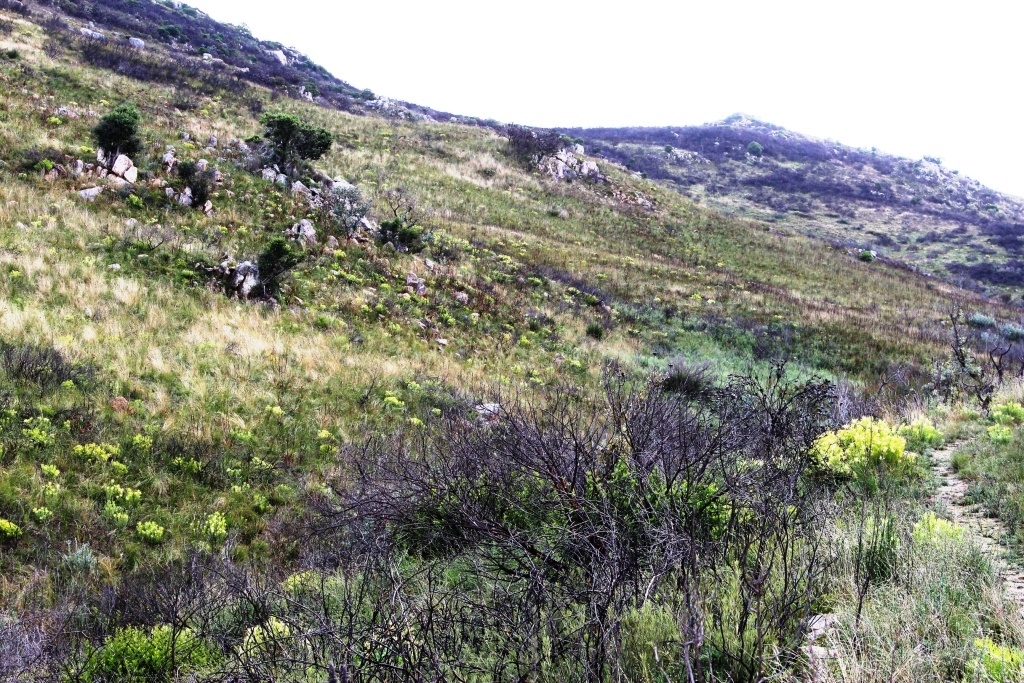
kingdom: Plantae
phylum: Tracheophyta
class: Magnoliopsida
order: Proteales
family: Proteaceae
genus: Leucadendron
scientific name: Leucadendron salignum
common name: Common sunshine conebush
